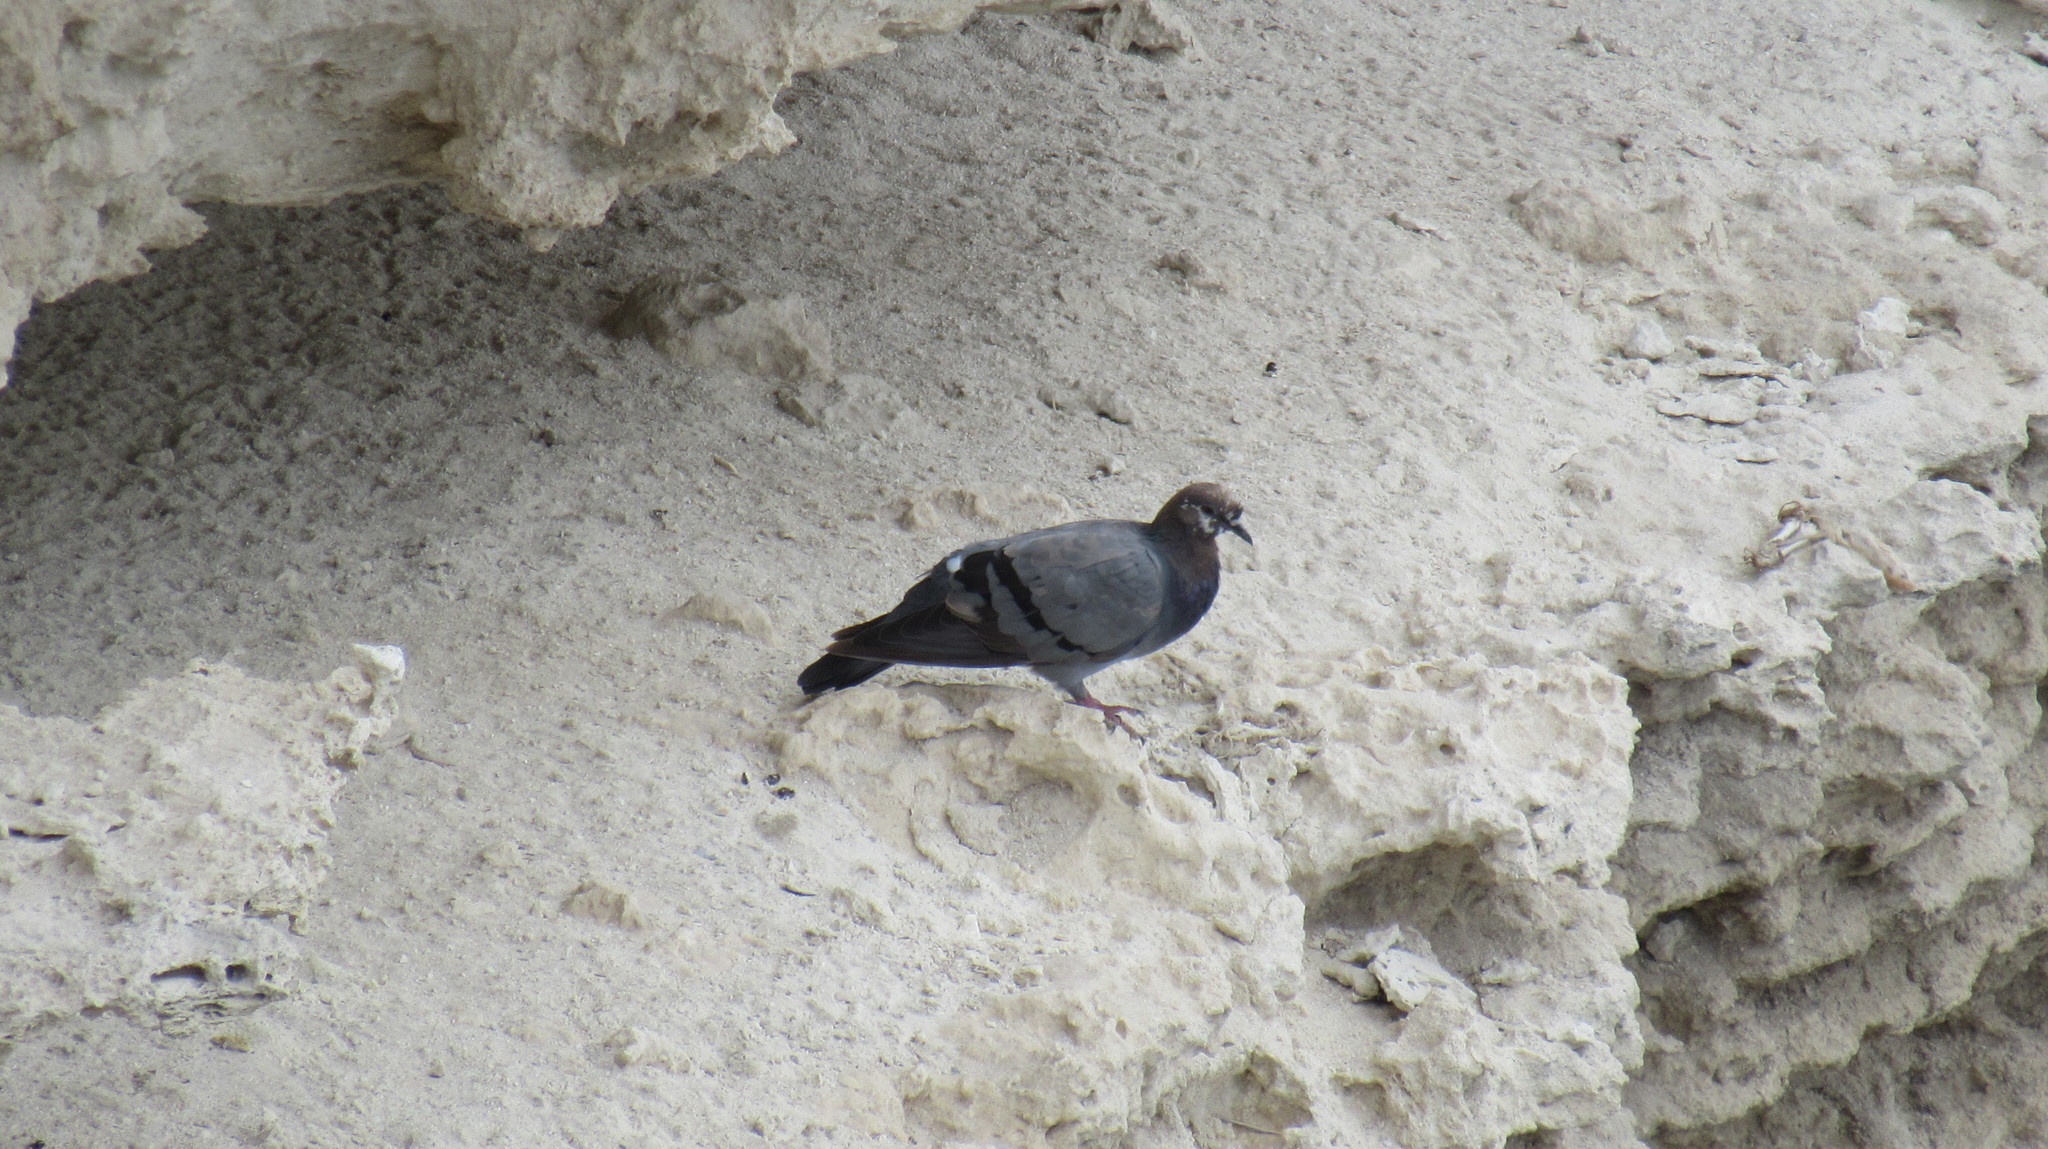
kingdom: Animalia
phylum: Chordata
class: Aves
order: Columbiformes
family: Columbidae
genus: Columba
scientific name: Columba livia
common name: Rock pigeon
